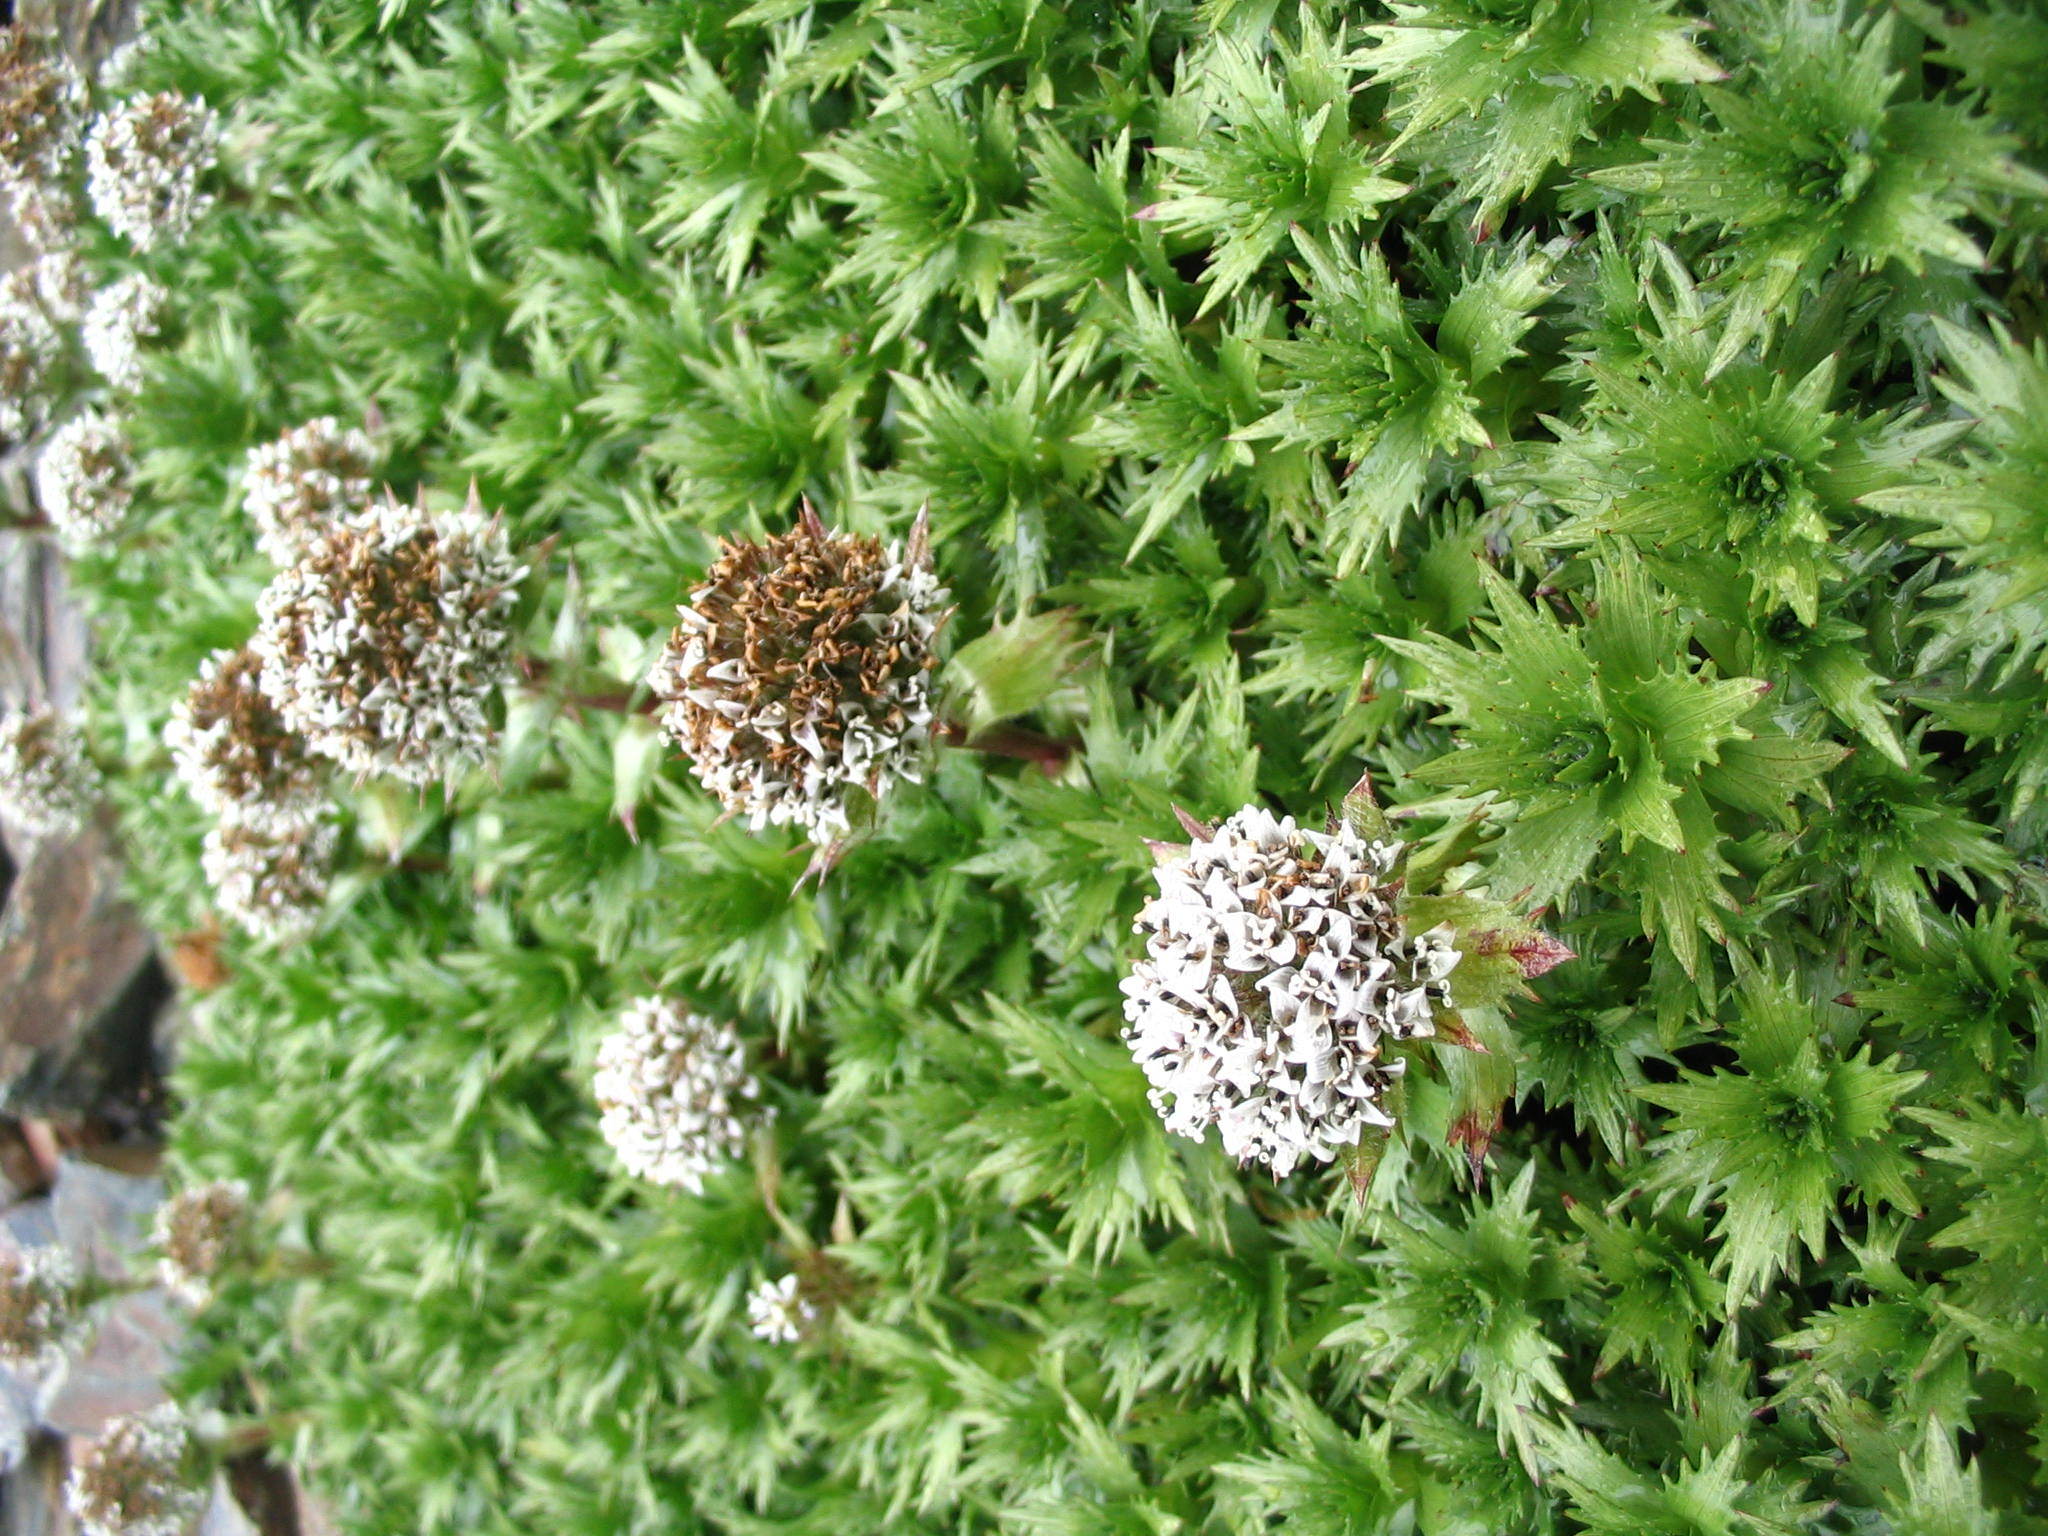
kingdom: Plantae
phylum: Tracheophyta
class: Magnoliopsida
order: Asterales
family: Asteraceae
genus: Nassauvia
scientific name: Nassauvia magellanica
